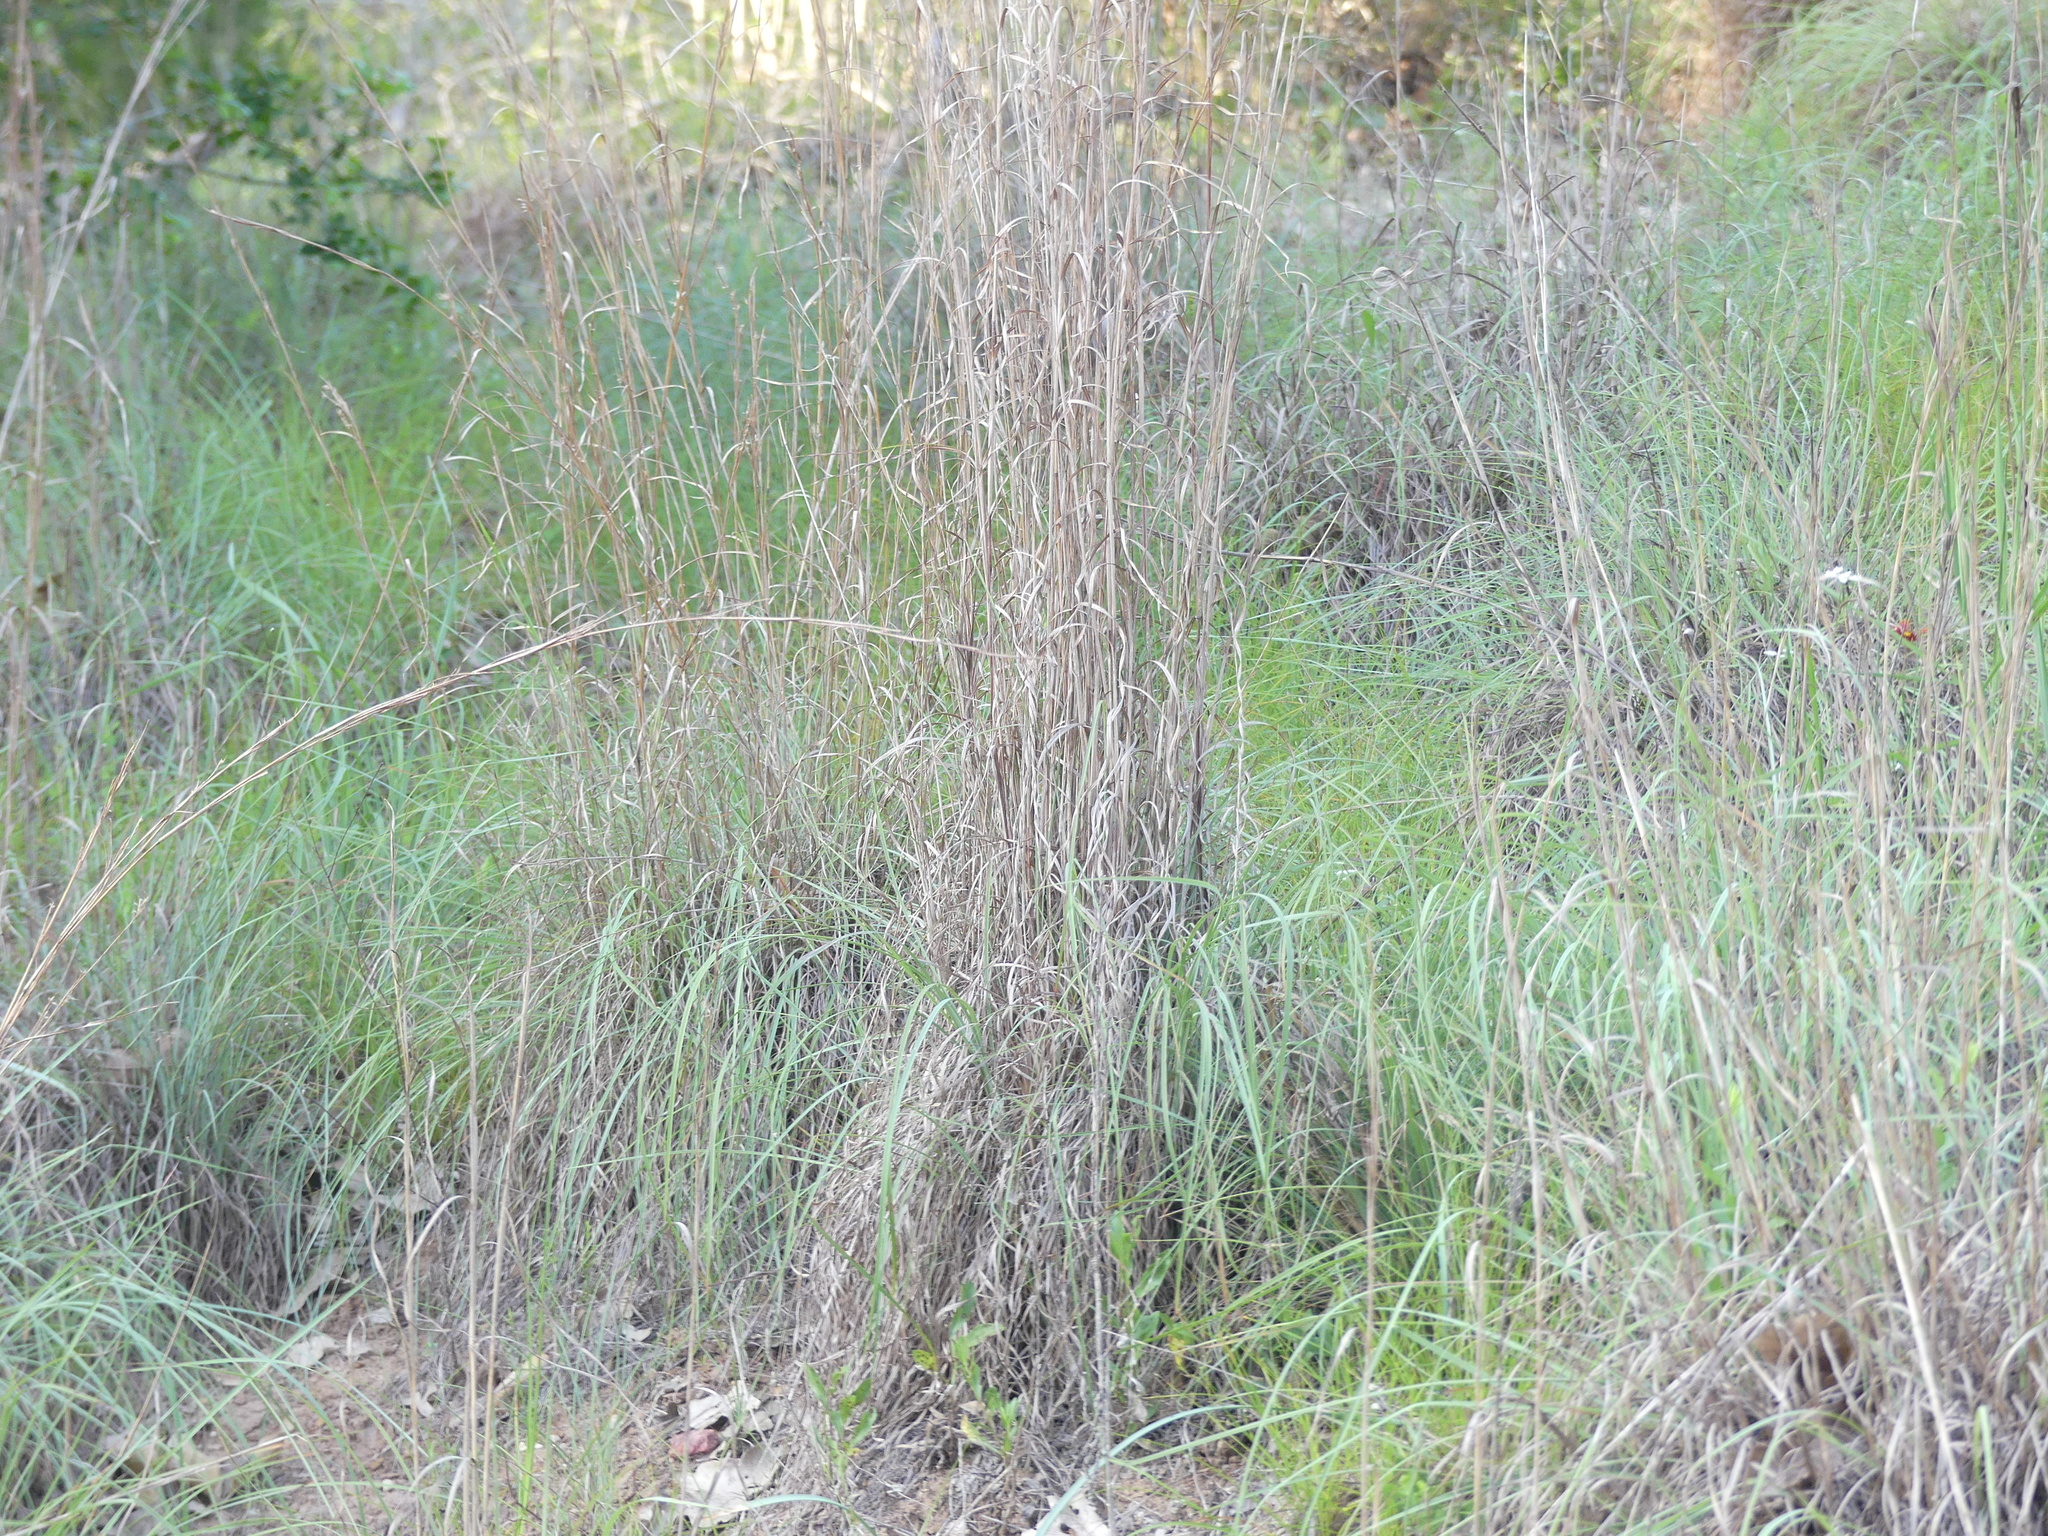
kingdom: Plantae
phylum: Tracheophyta
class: Liliopsida
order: Poales
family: Poaceae
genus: Schizachyrium
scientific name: Schizachyrium scoparium
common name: Little bluestem
